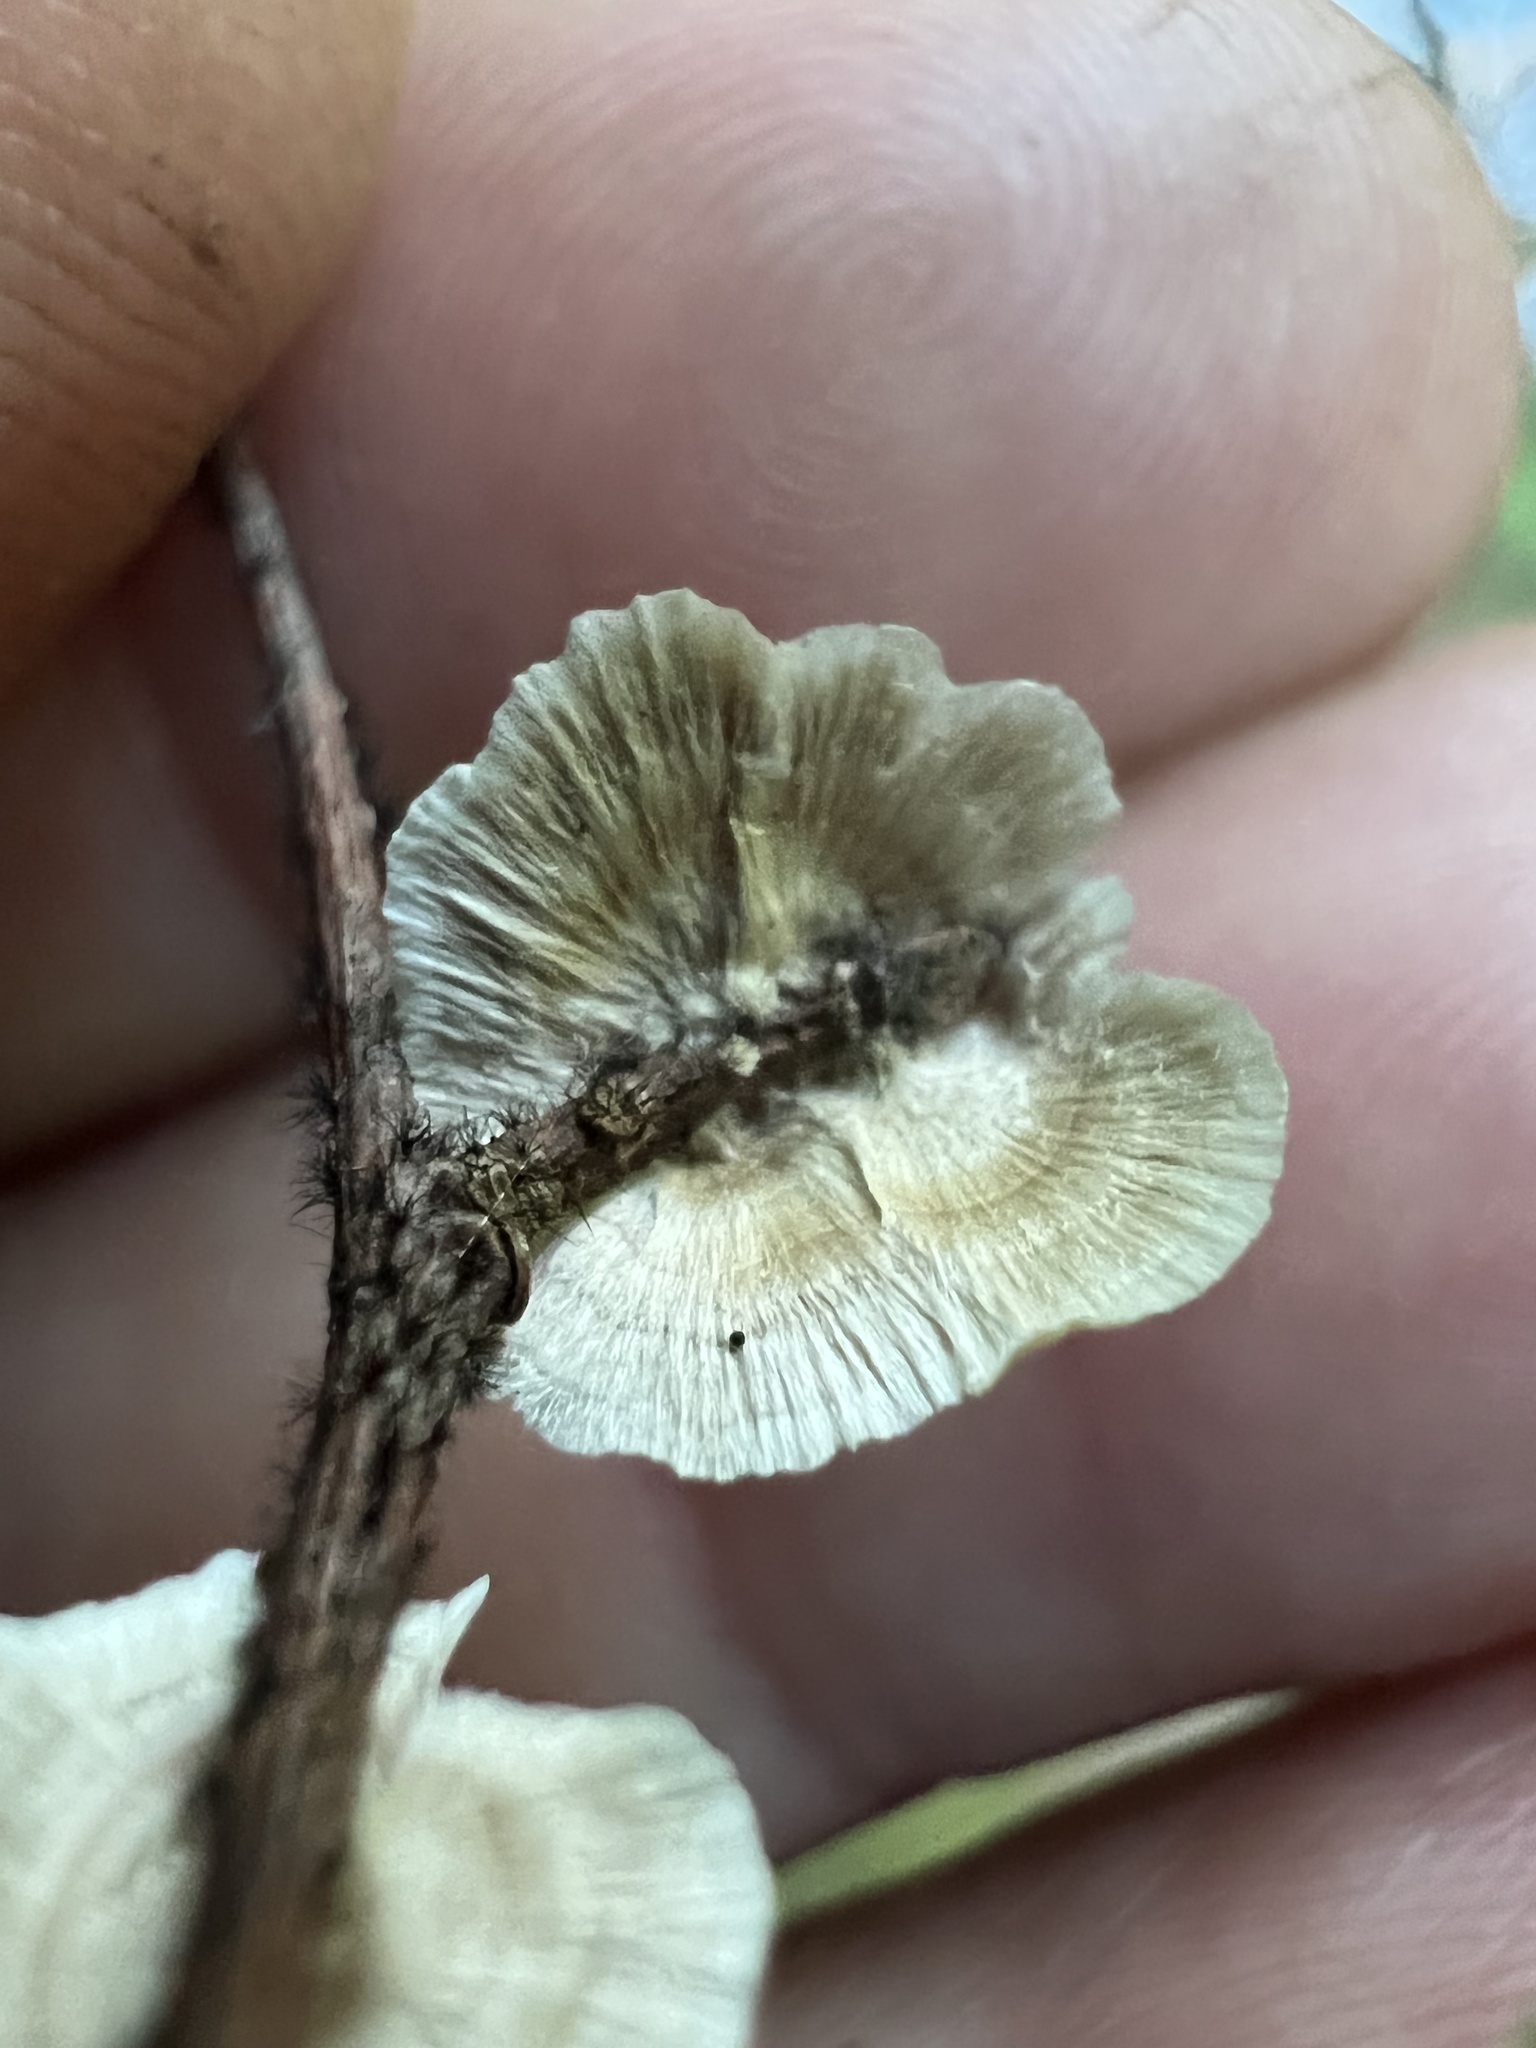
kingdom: Fungi
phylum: Basidiomycota
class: Agaricomycetes
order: Russulales
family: Stereaceae
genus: Stereum
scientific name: Stereum striatum
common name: Silky parchment
